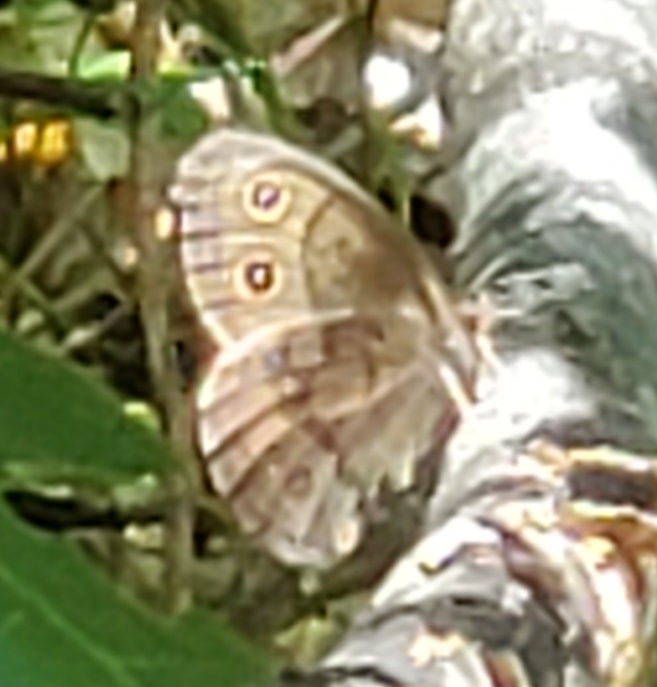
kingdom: Animalia
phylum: Arthropoda
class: Insecta
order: Lepidoptera
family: Nymphalidae
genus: Cercyonis
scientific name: Cercyonis pegala
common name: Common wood-nymph
